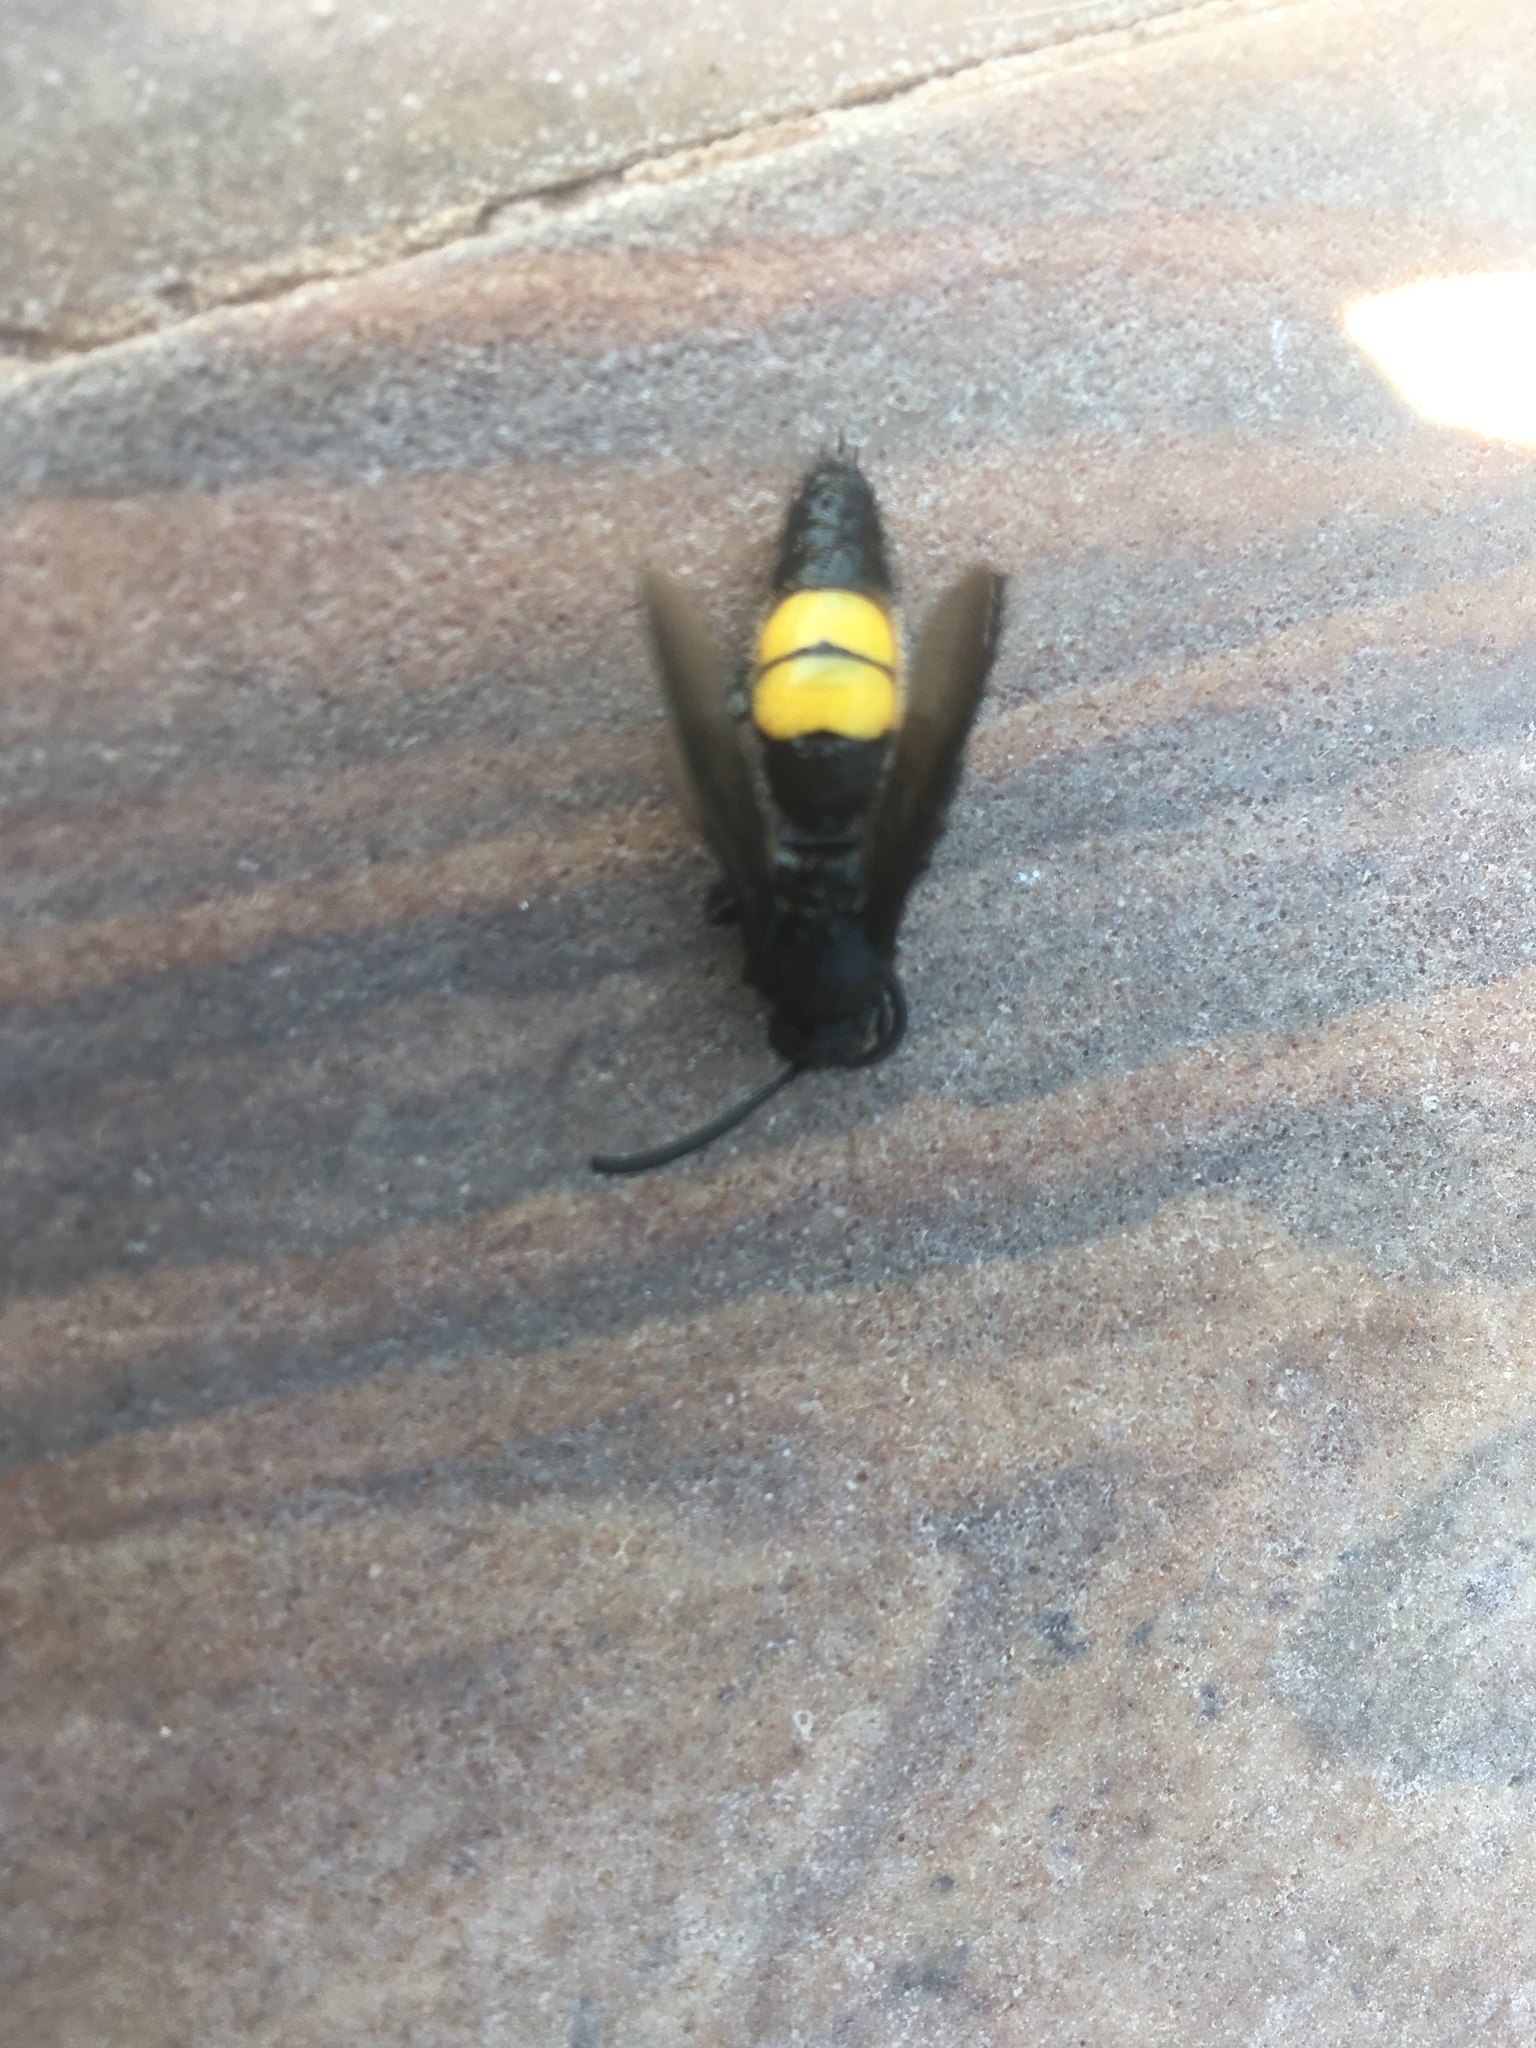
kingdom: Animalia
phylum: Arthropoda
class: Insecta
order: Hymenoptera
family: Scoliidae
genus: Scolia
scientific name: Scolia hirta
